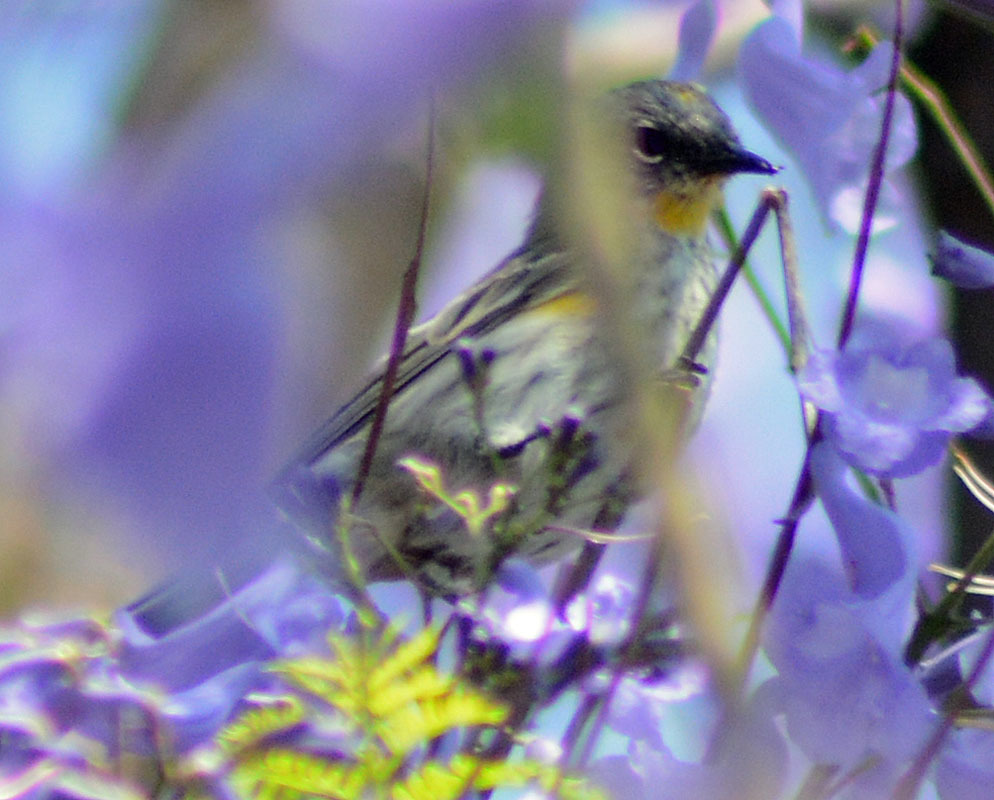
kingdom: Animalia
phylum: Chordata
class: Aves
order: Passeriformes
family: Parulidae
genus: Setophaga
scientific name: Setophaga coronata
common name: Myrtle warbler
